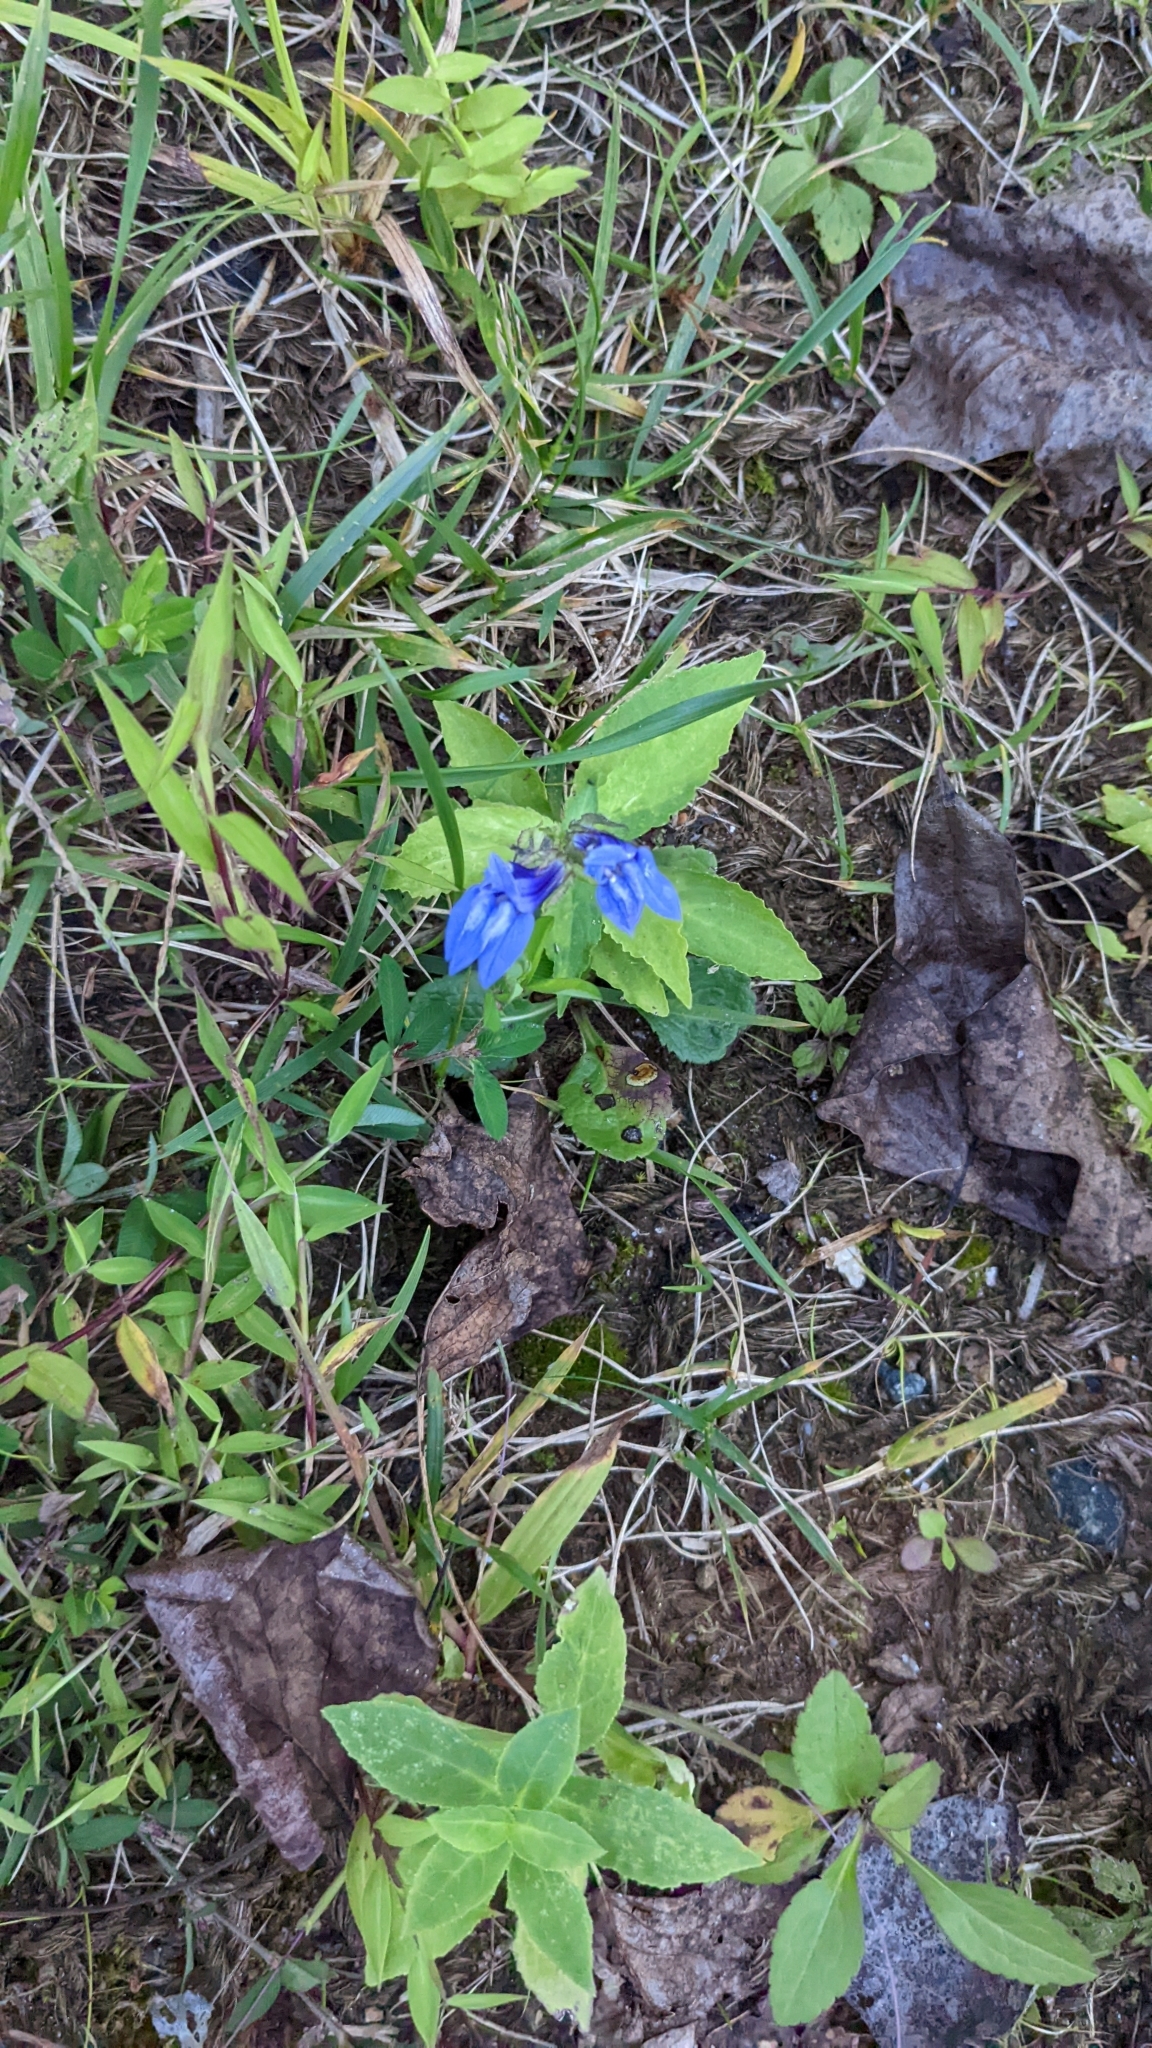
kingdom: Plantae
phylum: Tracheophyta
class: Magnoliopsida
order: Asterales
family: Campanulaceae
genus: Lobelia
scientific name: Lobelia siphilitica
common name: Great lobelia
